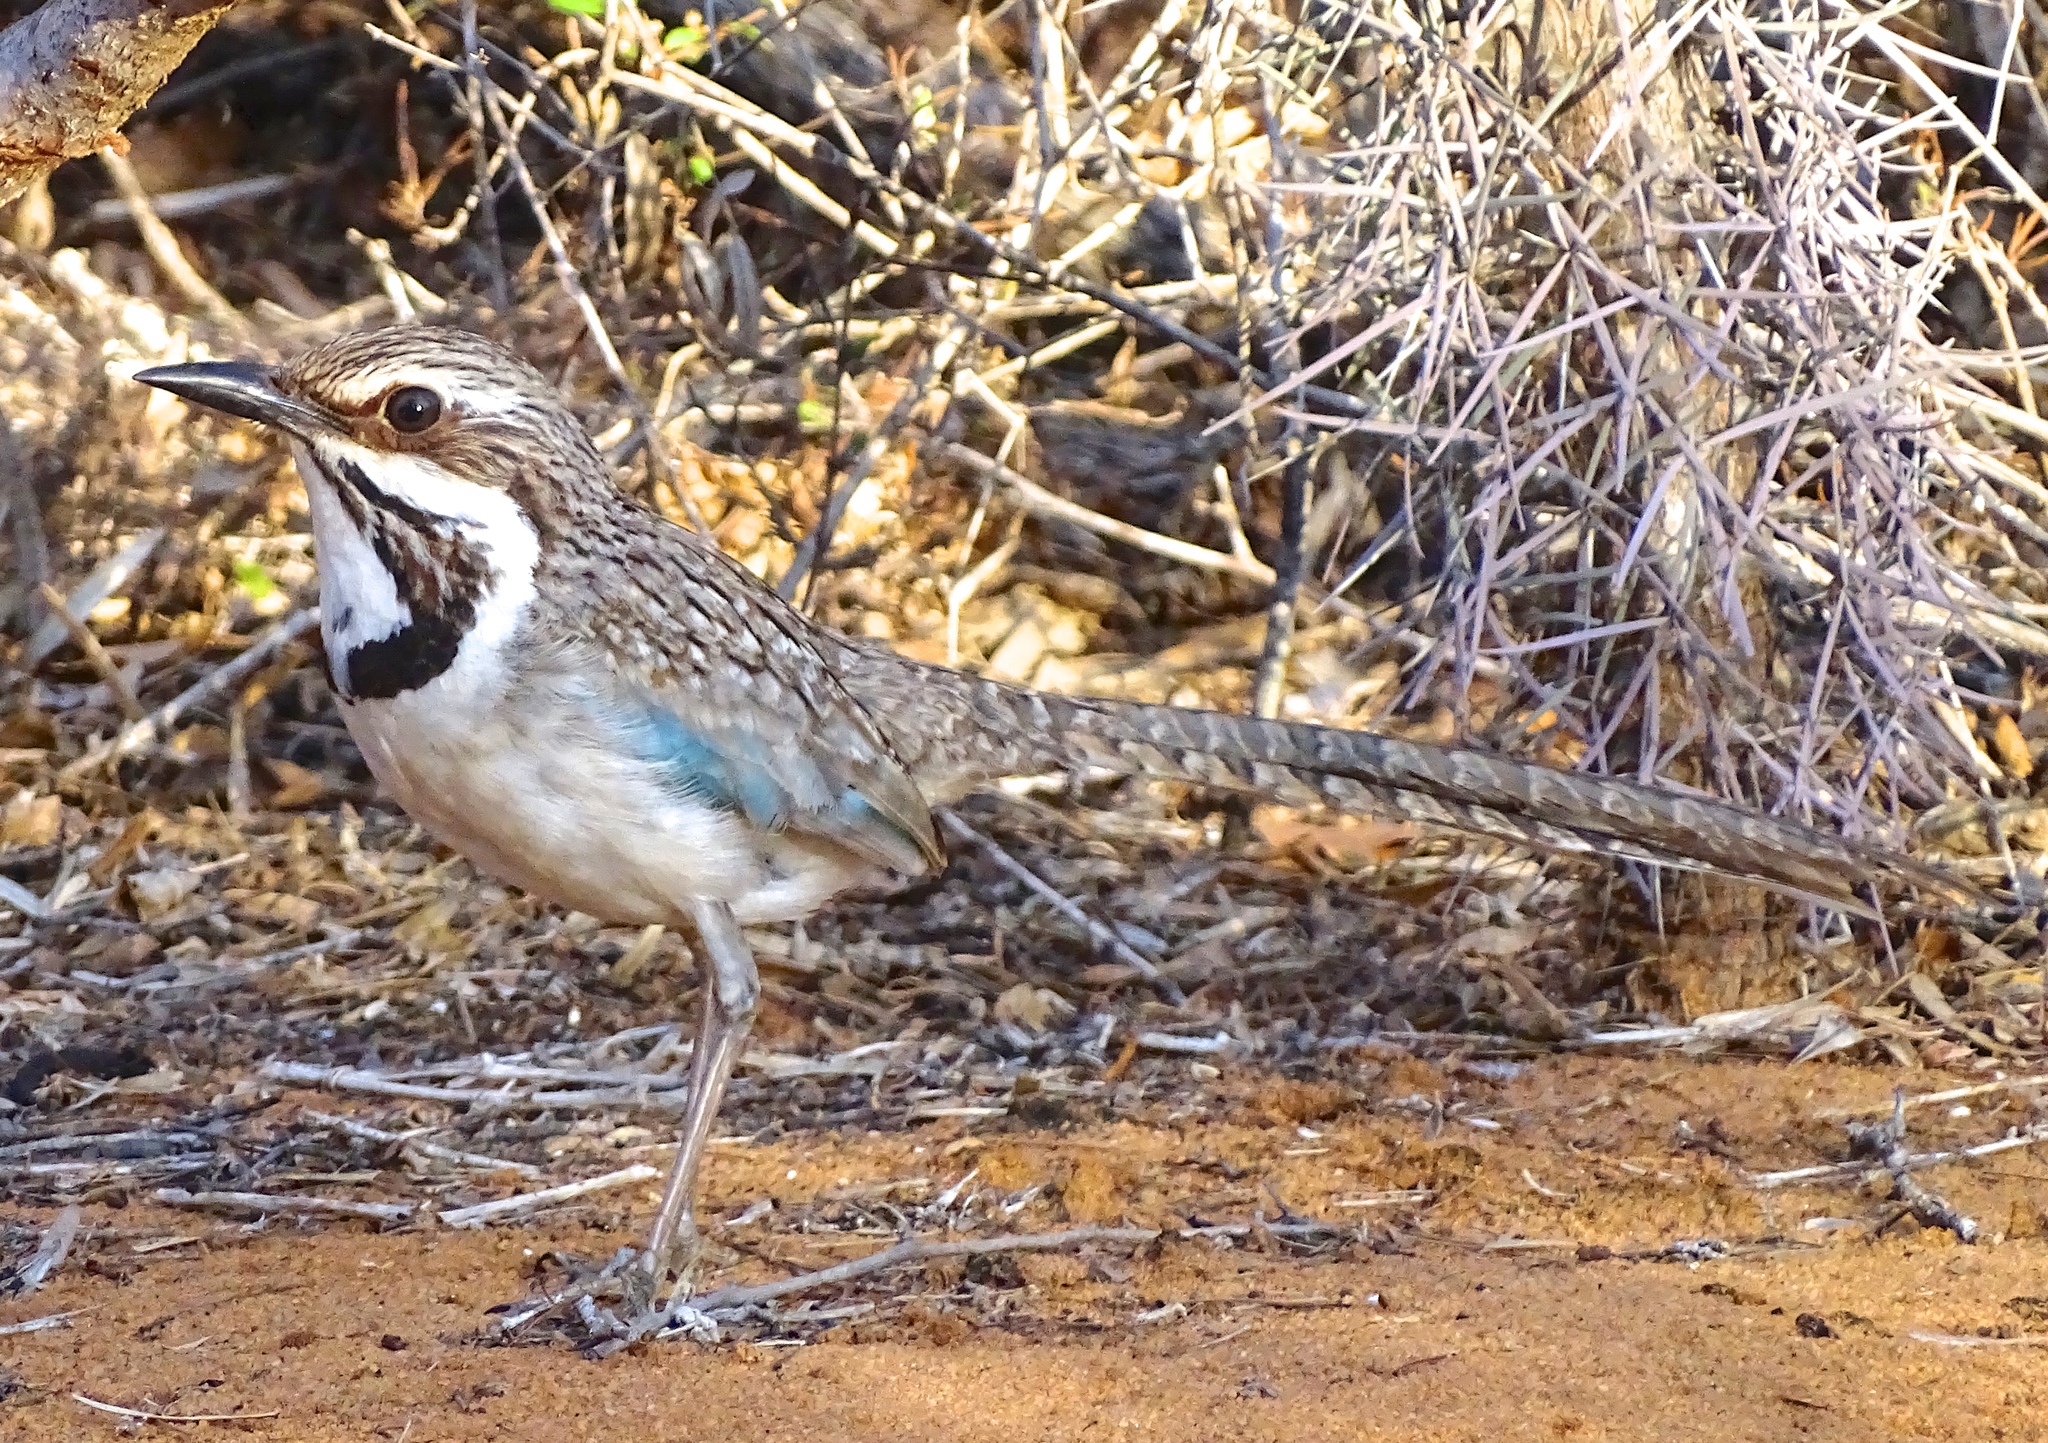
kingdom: Animalia
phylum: Chordata
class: Aves
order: Coraciiformes
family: Brachypteraciidae
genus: Uratelornis
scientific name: Uratelornis chimaera
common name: Long-tailed ground roller
